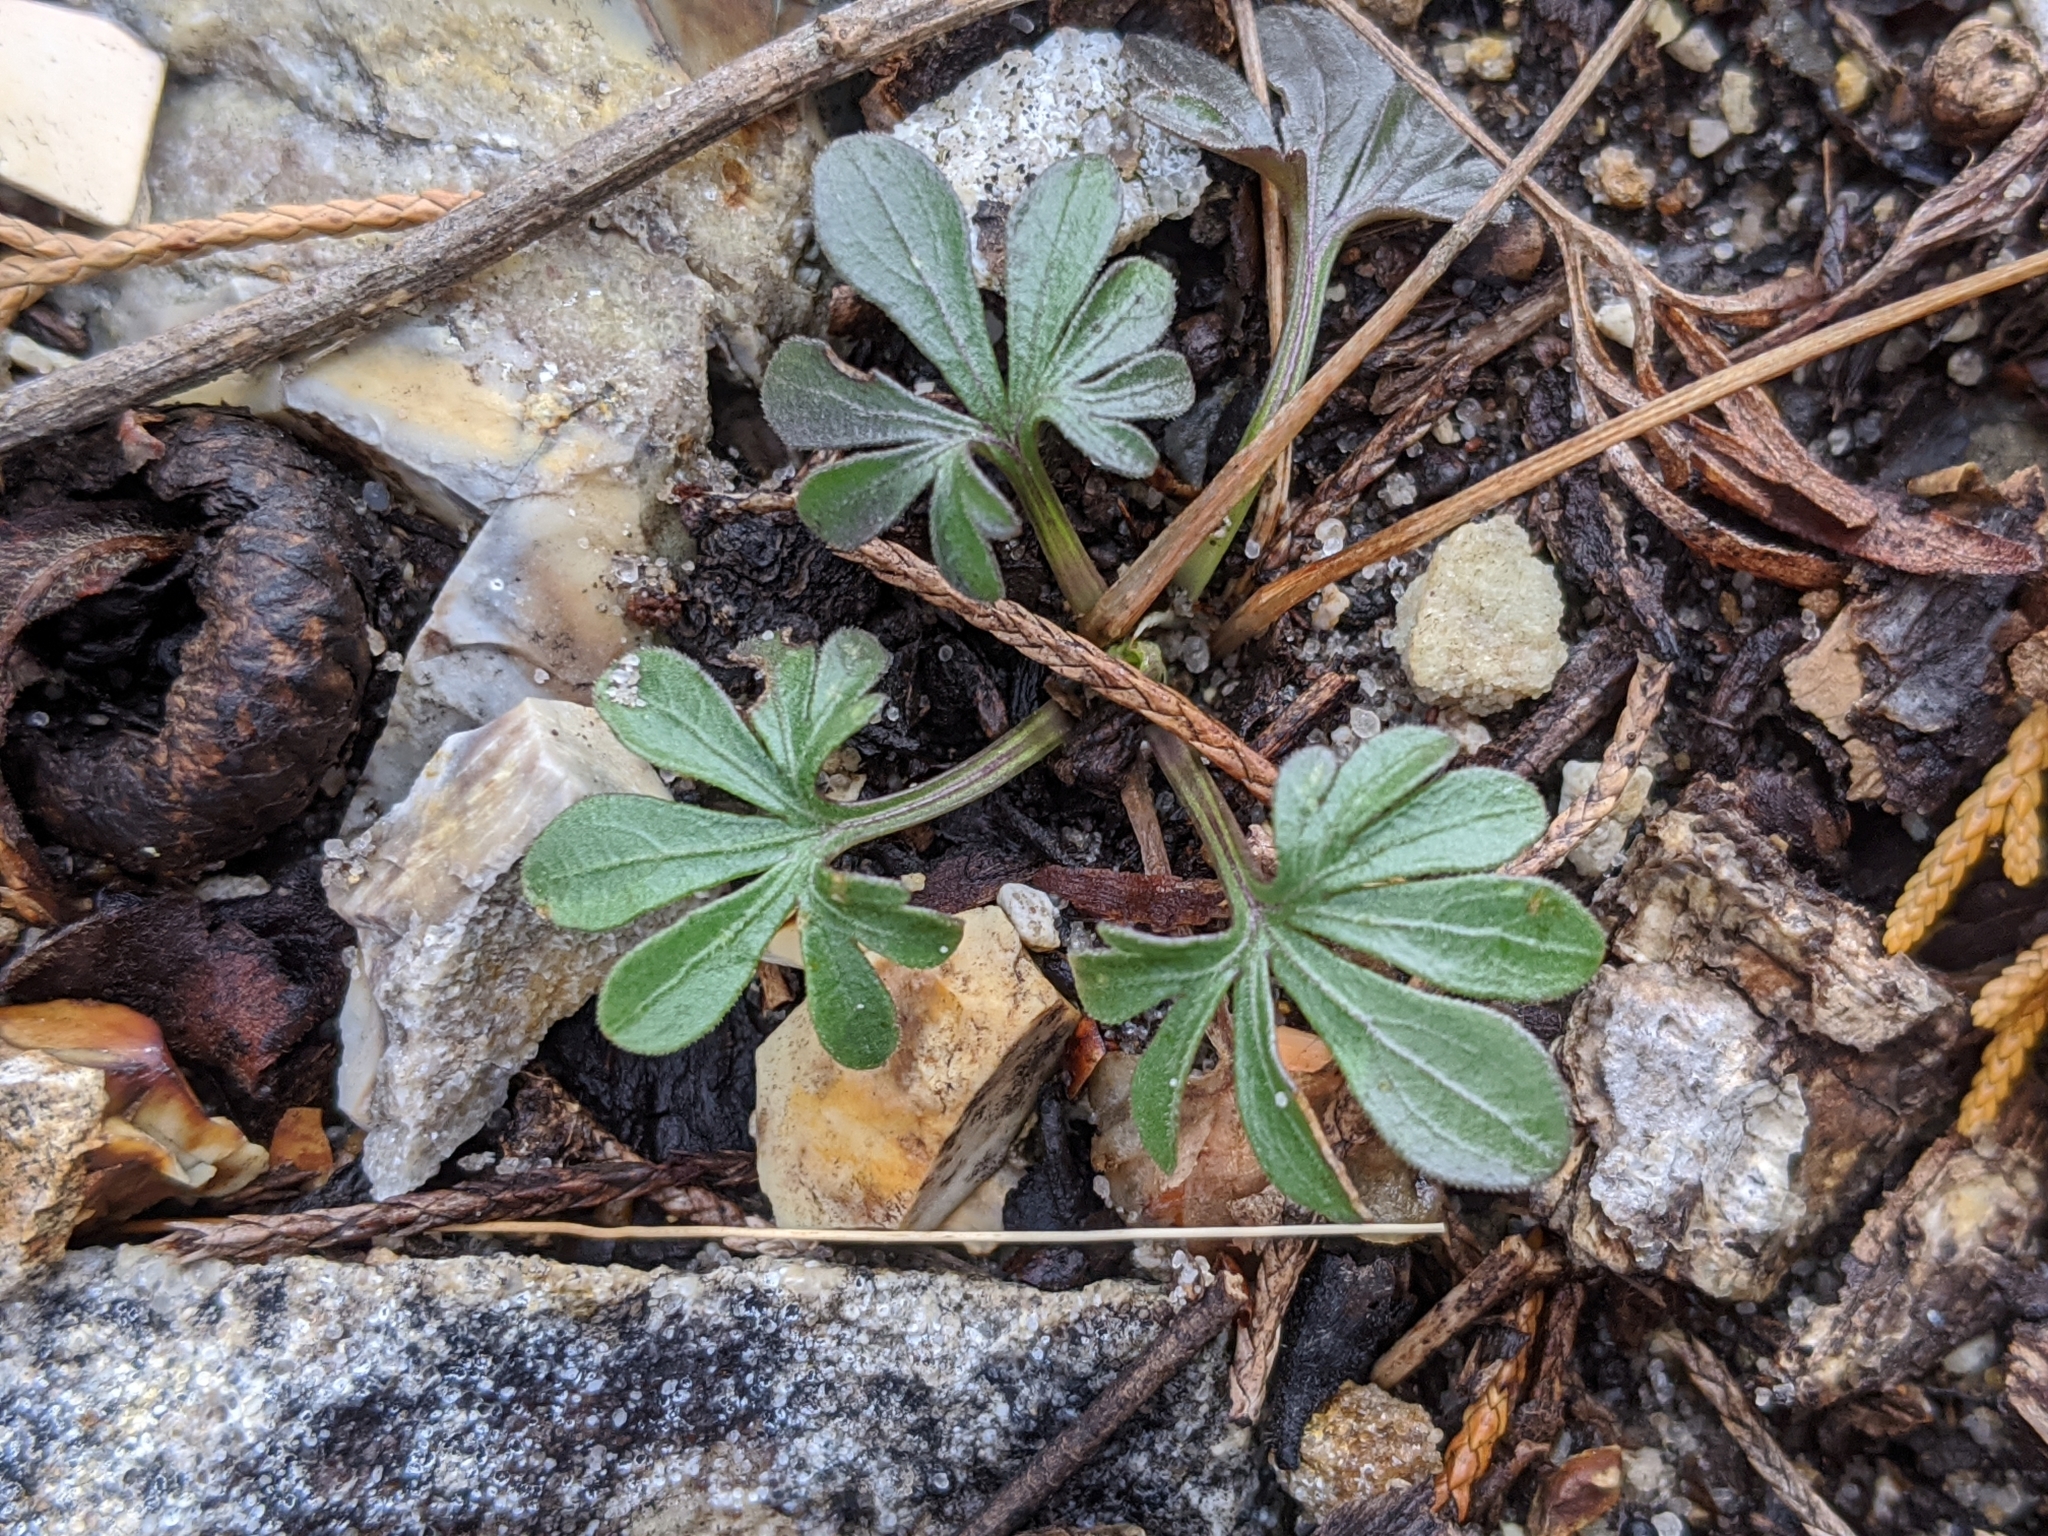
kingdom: Plantae
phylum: Tracheophyta
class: Magnoliopsida
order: Malpighiales
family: Violaceae
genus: Viola
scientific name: Viola pedata
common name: Pansy violet
